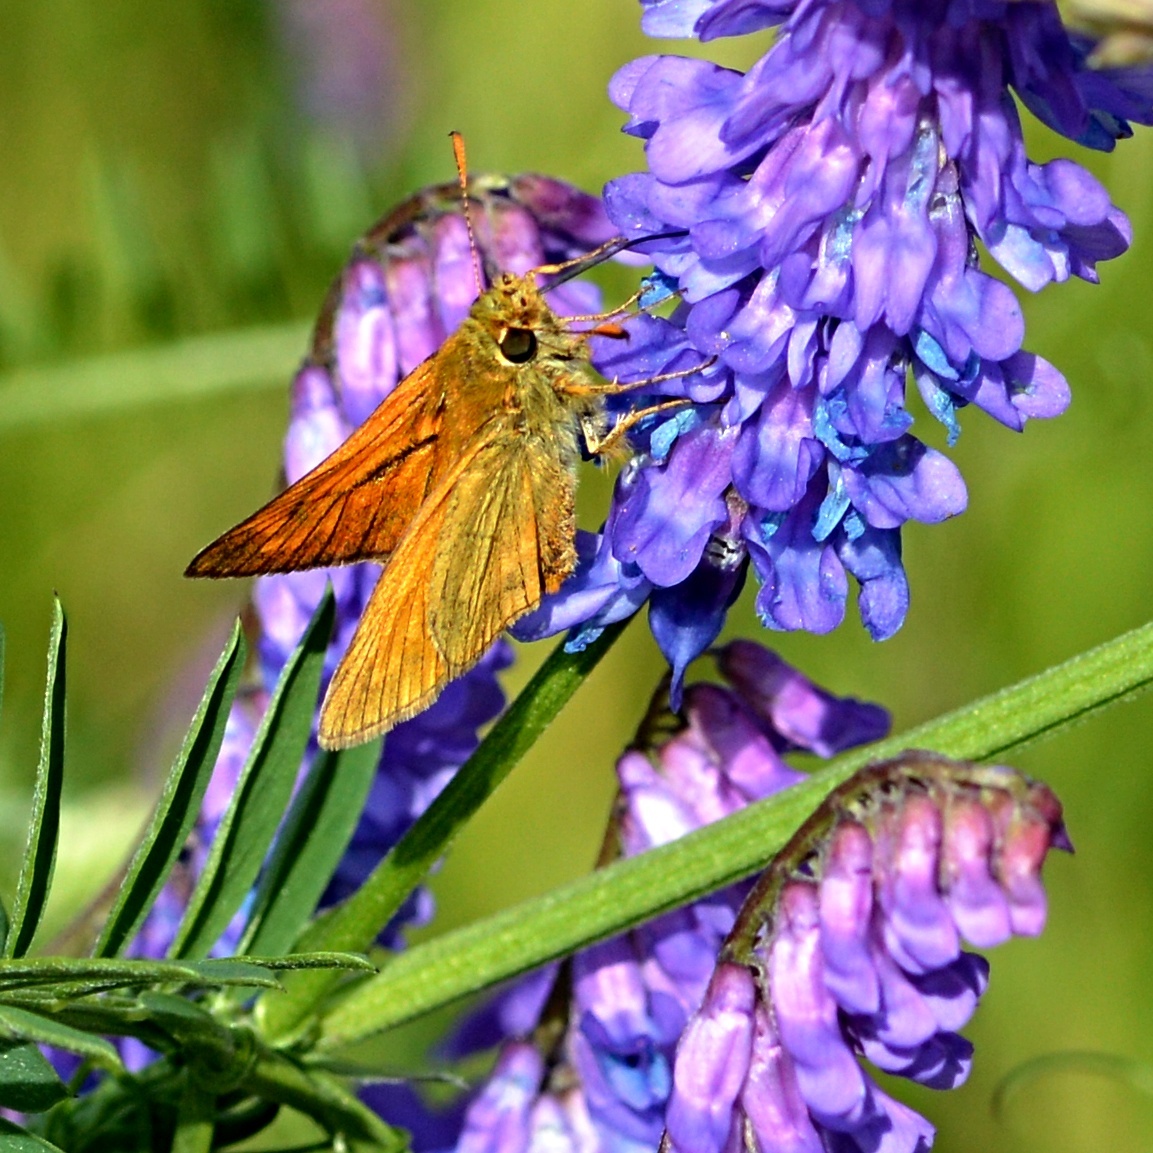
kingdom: Animalia
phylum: Arthropoda
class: Insecta
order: Lepidoptera
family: Hesperiidae
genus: Ochlodes
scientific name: Ochlodes venata
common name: Large skipper
